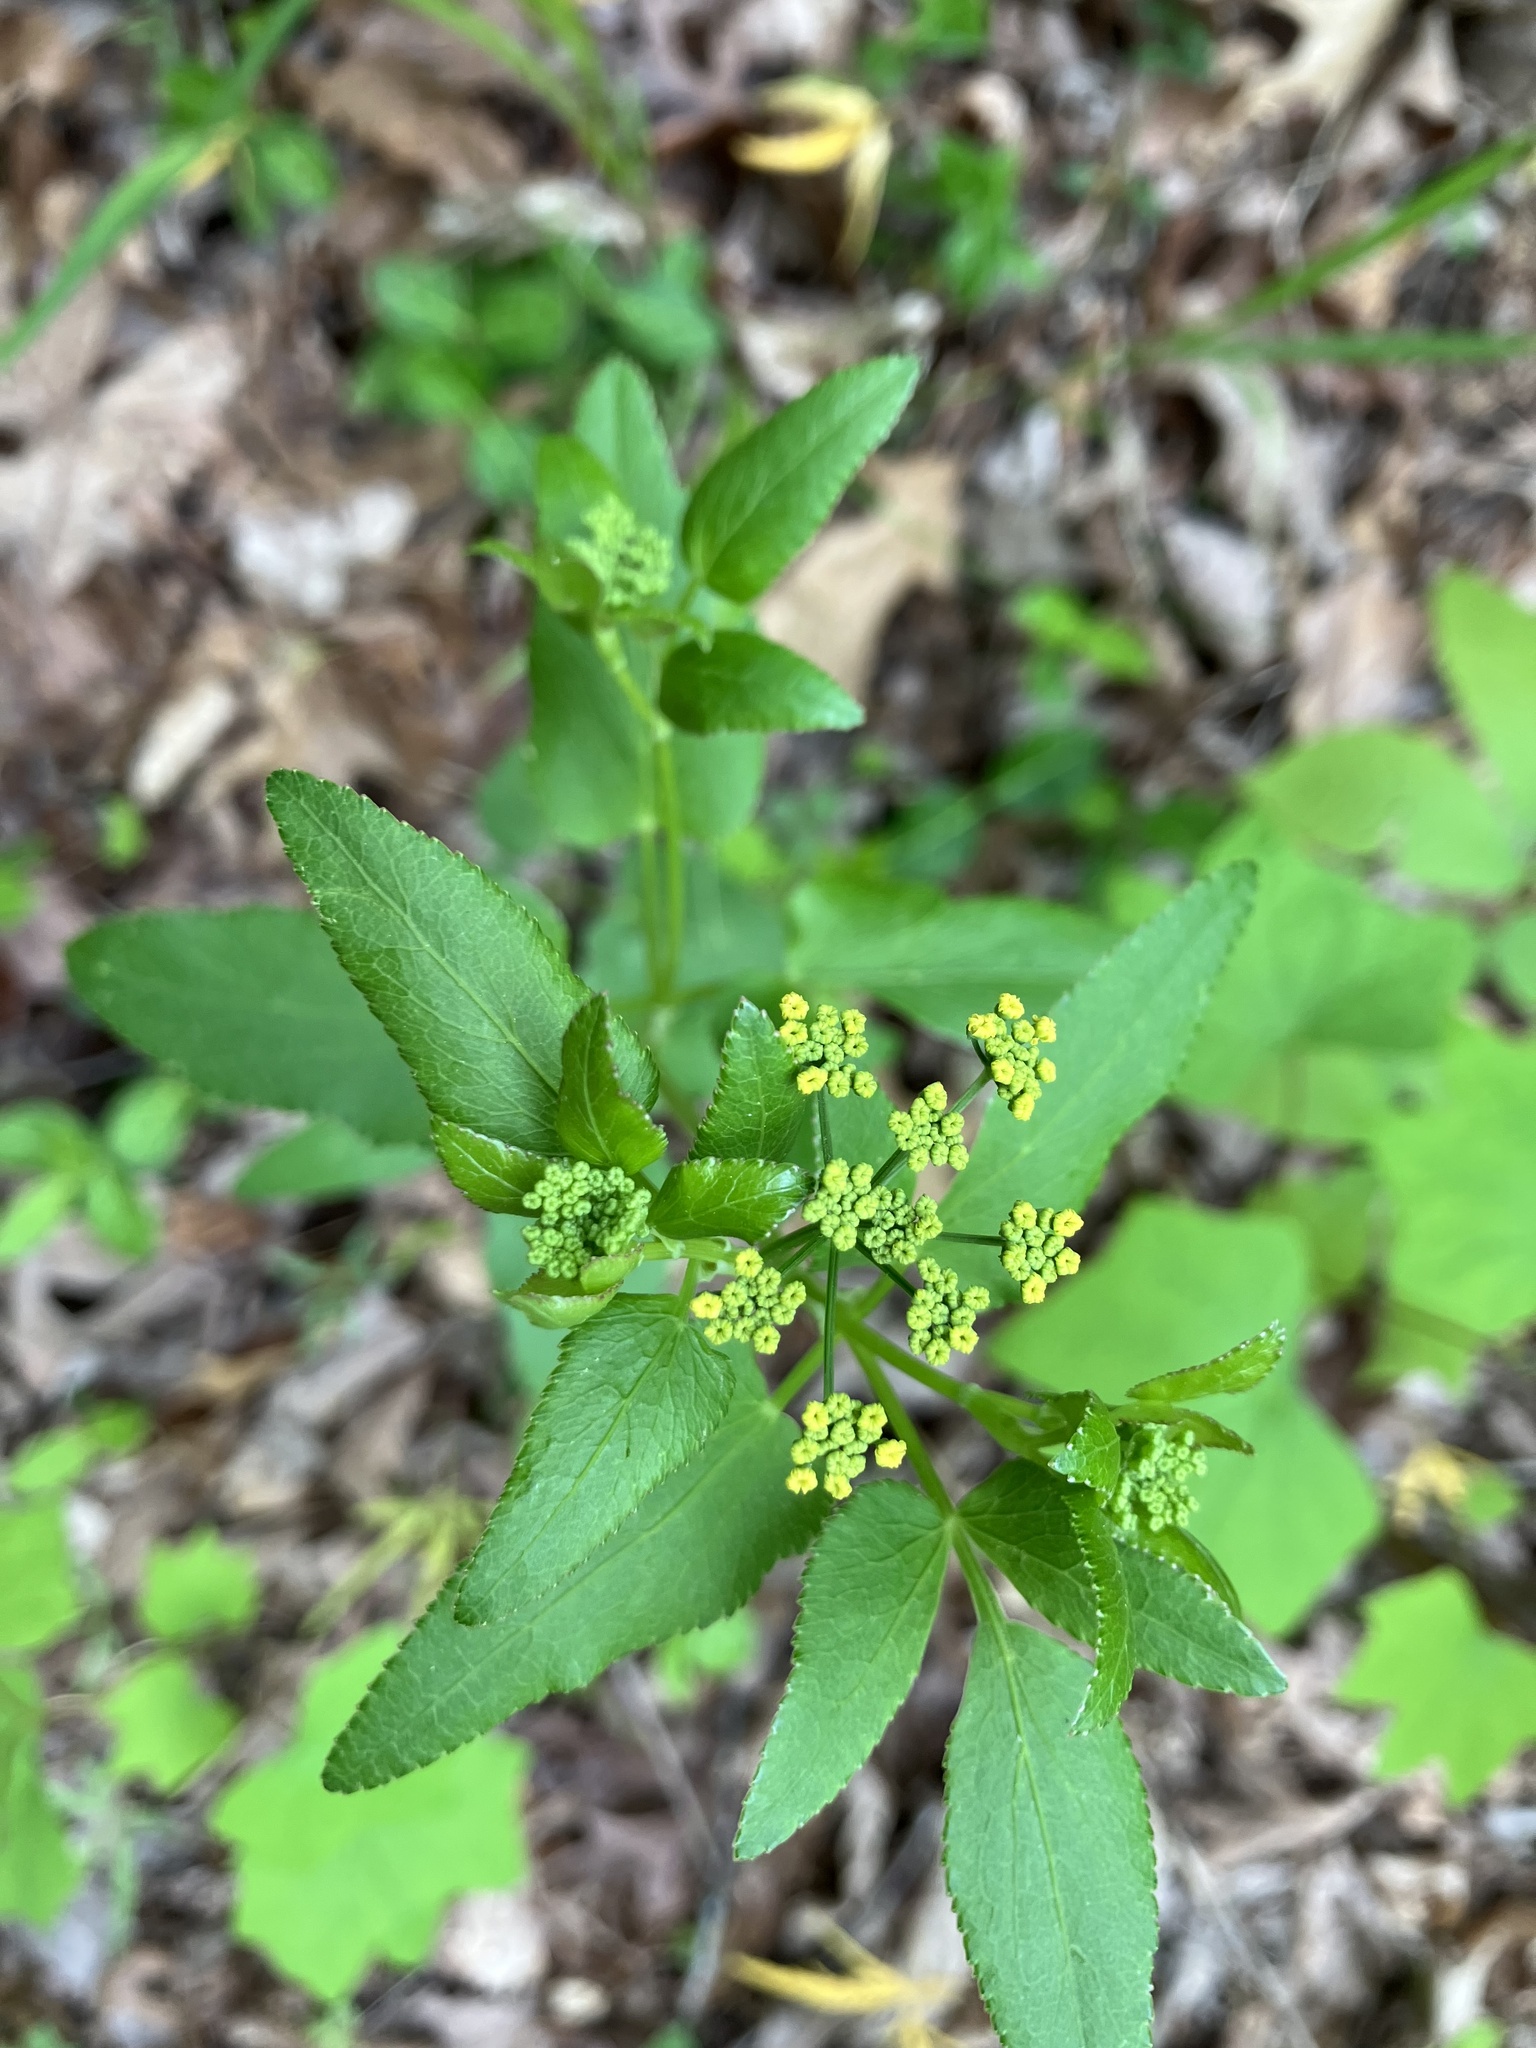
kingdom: Plantae
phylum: Tracheophyta
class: Magnoliopsida
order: Apiales
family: Apiaceae
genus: Zizia
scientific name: Zizia aptera
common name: Heart-leaved alexanders
